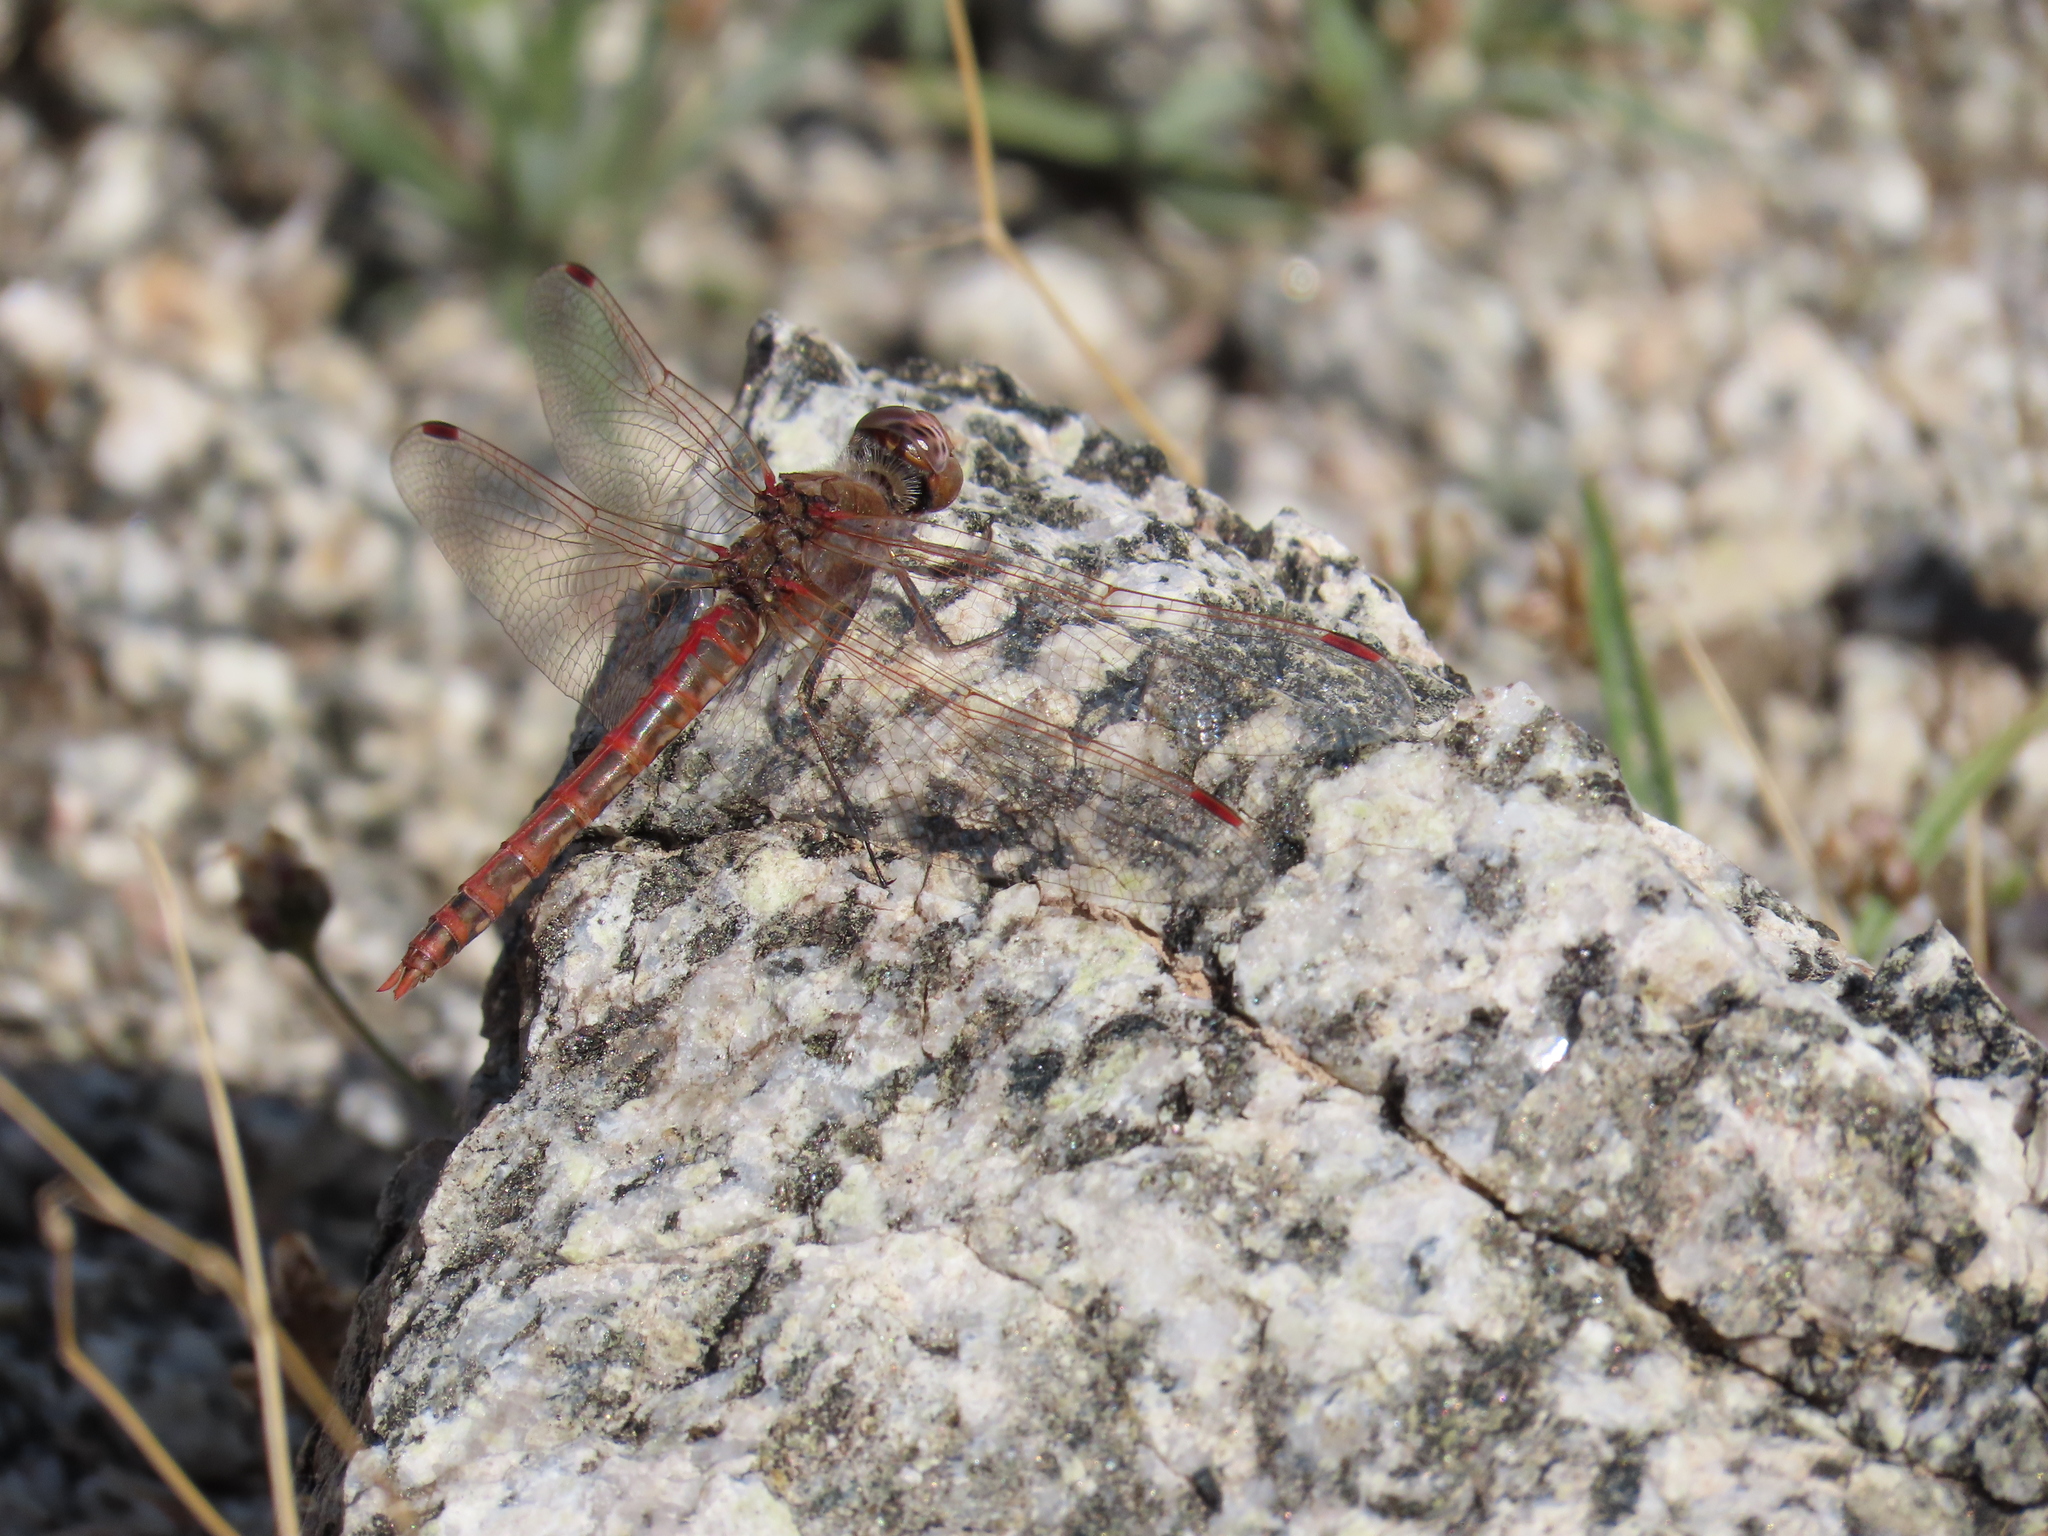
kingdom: Animalia
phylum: Arthropoda
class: Insecta
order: Odonata
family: Libellulidae
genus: Sympetrum
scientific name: Sympetrum corruptum
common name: Variegated meadowhawk
